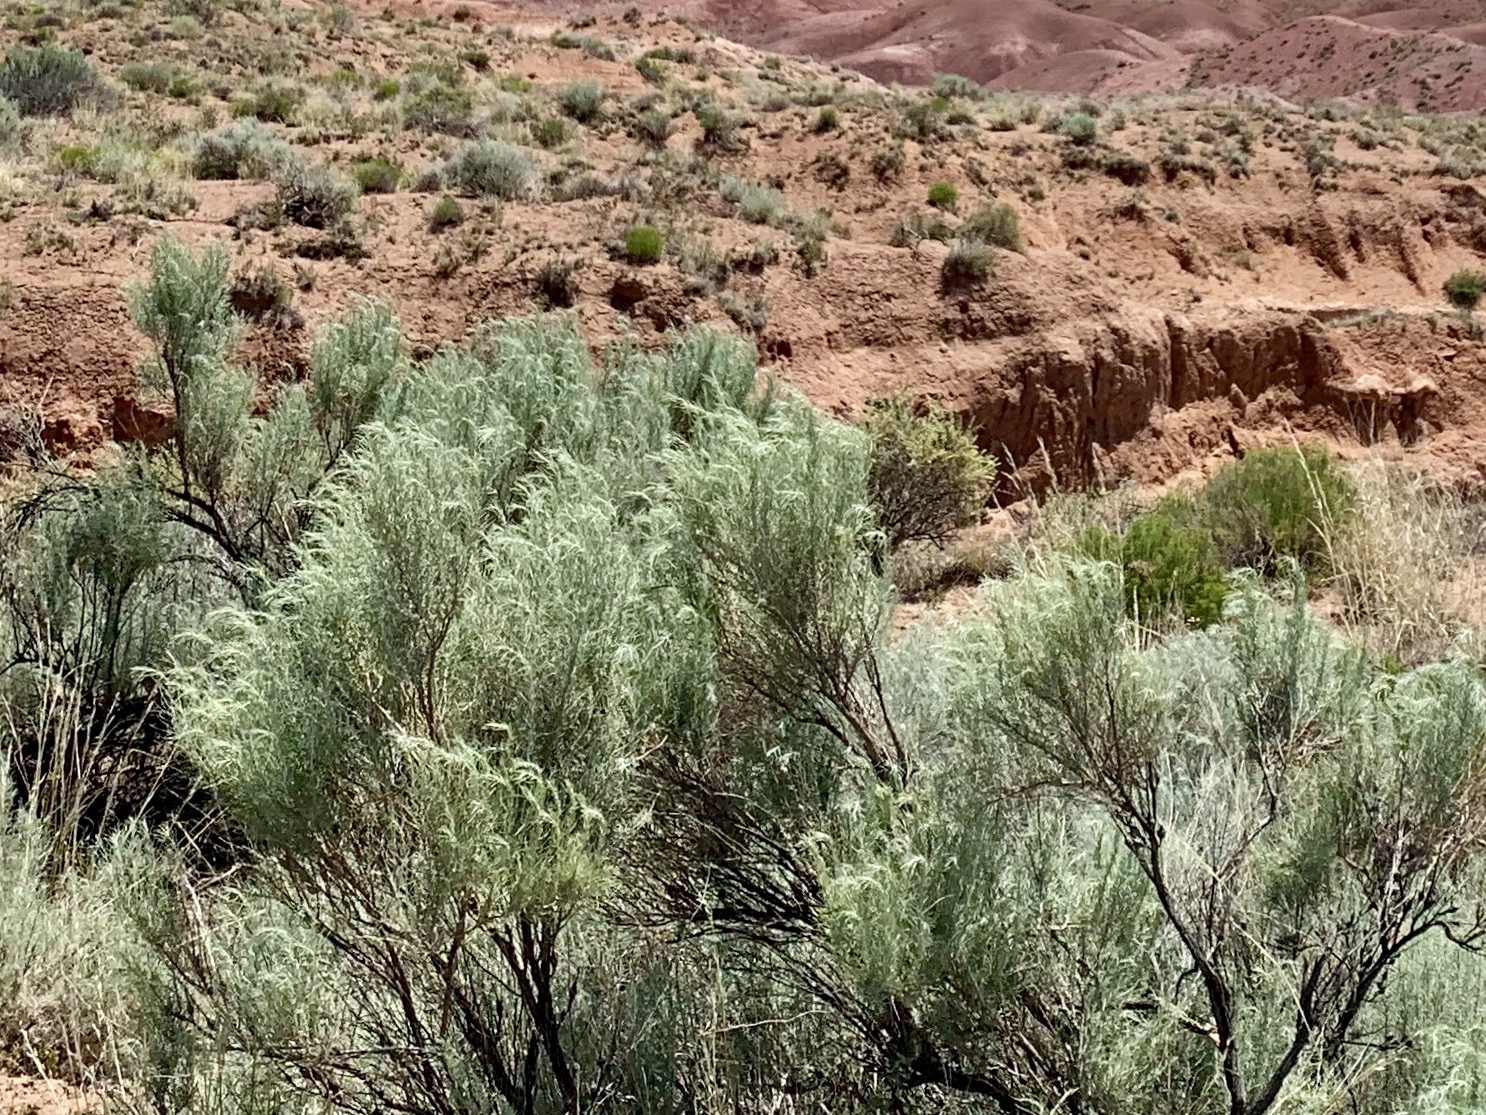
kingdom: Plantae
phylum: Tracheophyta
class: Magnoliopsida
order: Asterales
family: Asteraceae
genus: Artemisia
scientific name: Artemisia filifolia
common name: Sand-sage
